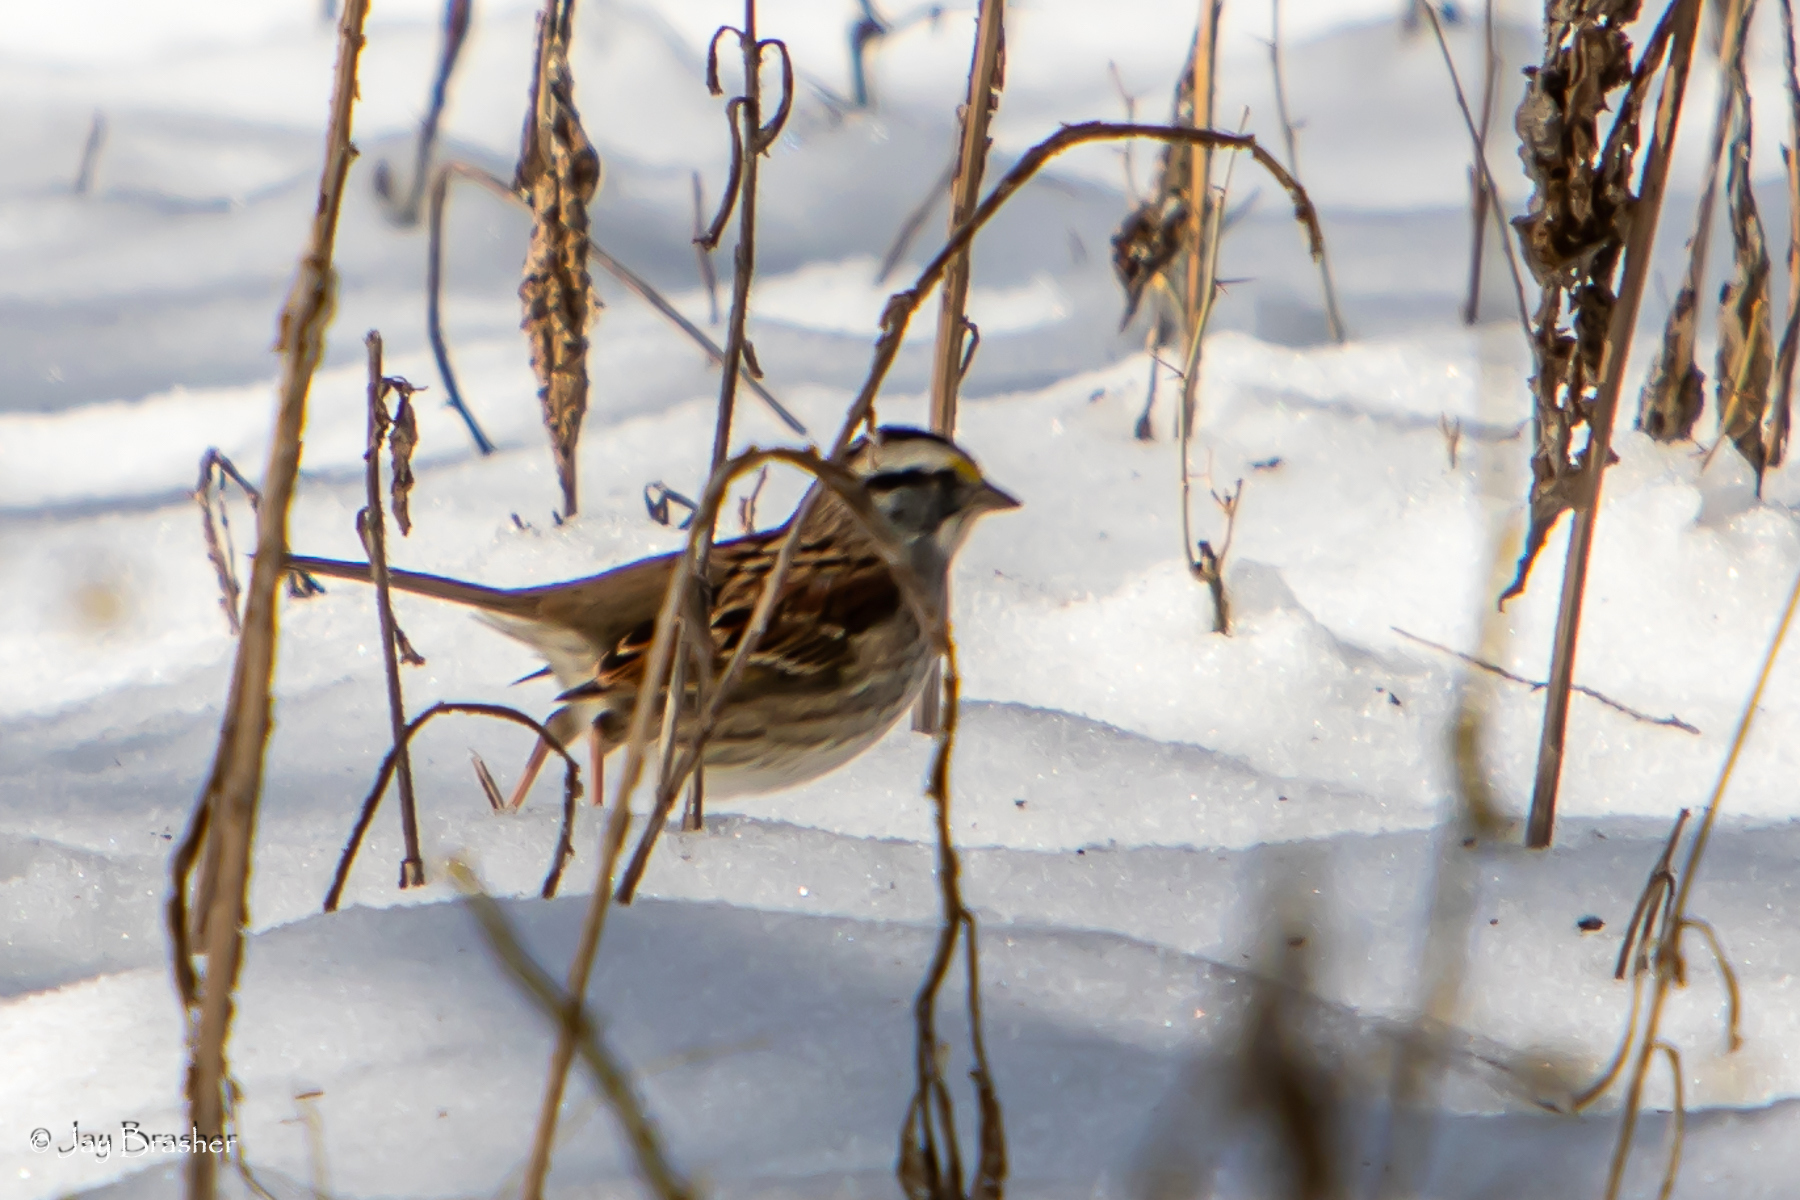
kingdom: Animalia
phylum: Chordata
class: Aves
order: Passeriformes
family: Passerellidae
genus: Zonotrichia
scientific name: Zonotrichia albicollis
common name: White-throated sparrow
